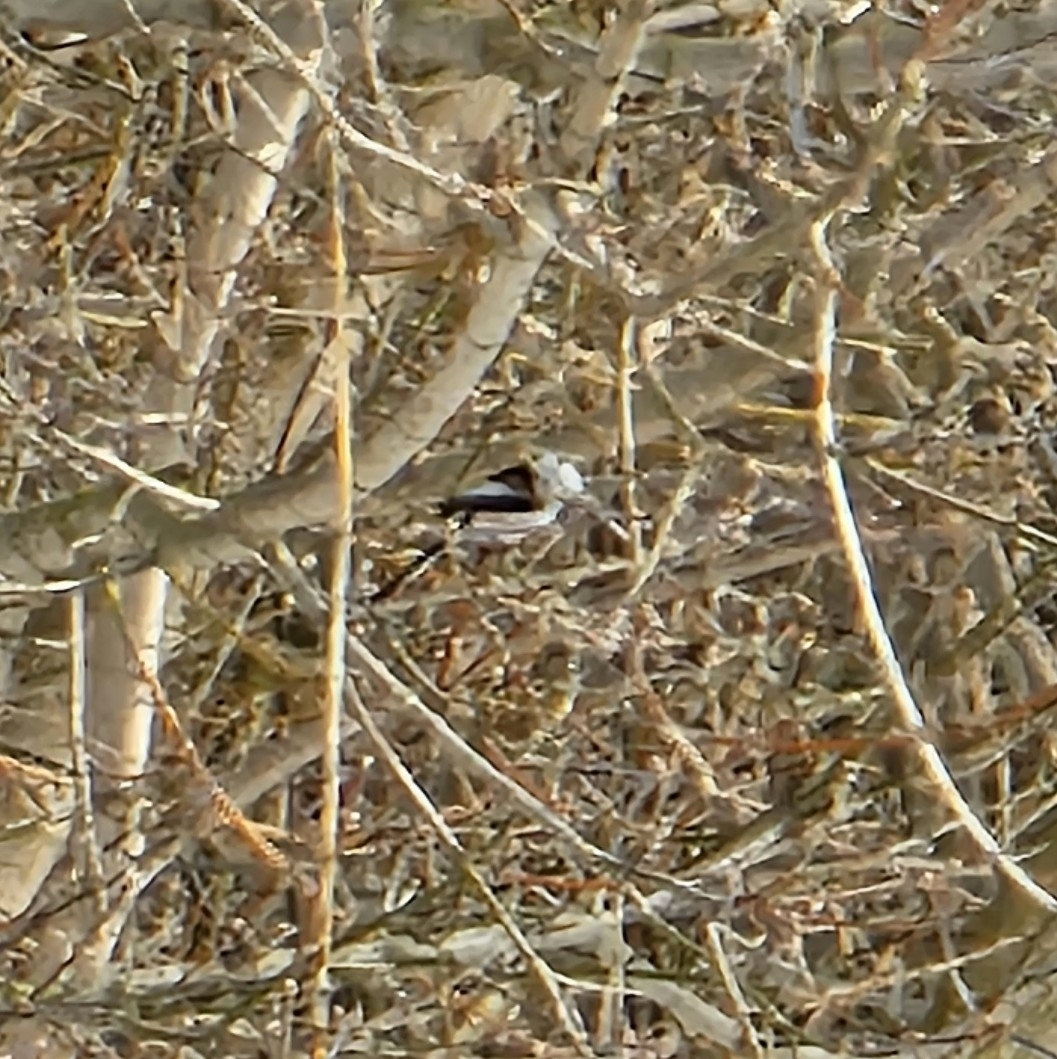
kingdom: Animalia
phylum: Chordata
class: Aves
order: Passeriformes
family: Aegithalidae
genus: Aegithalos
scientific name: Aegithalos caudatus
